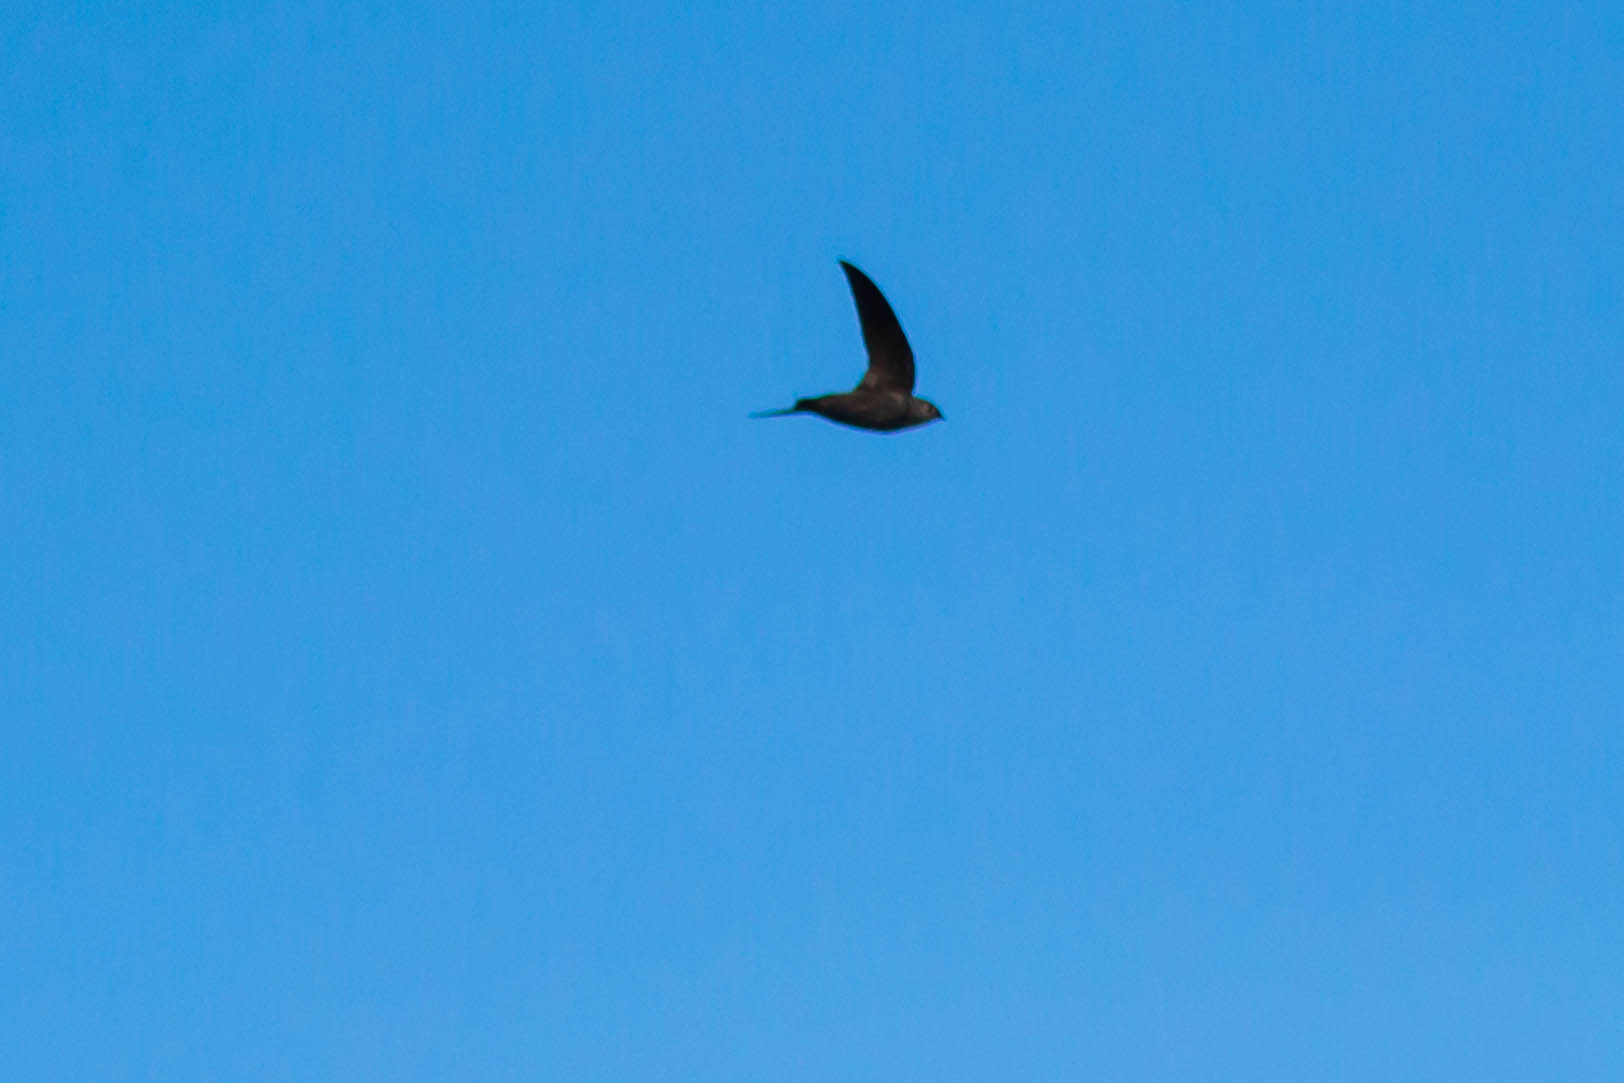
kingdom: Animalia
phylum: Chordata
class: Aves
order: Apodiformes
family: Apodidae
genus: Chaetura
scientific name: Chaetura pelagica
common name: Chimney swift
